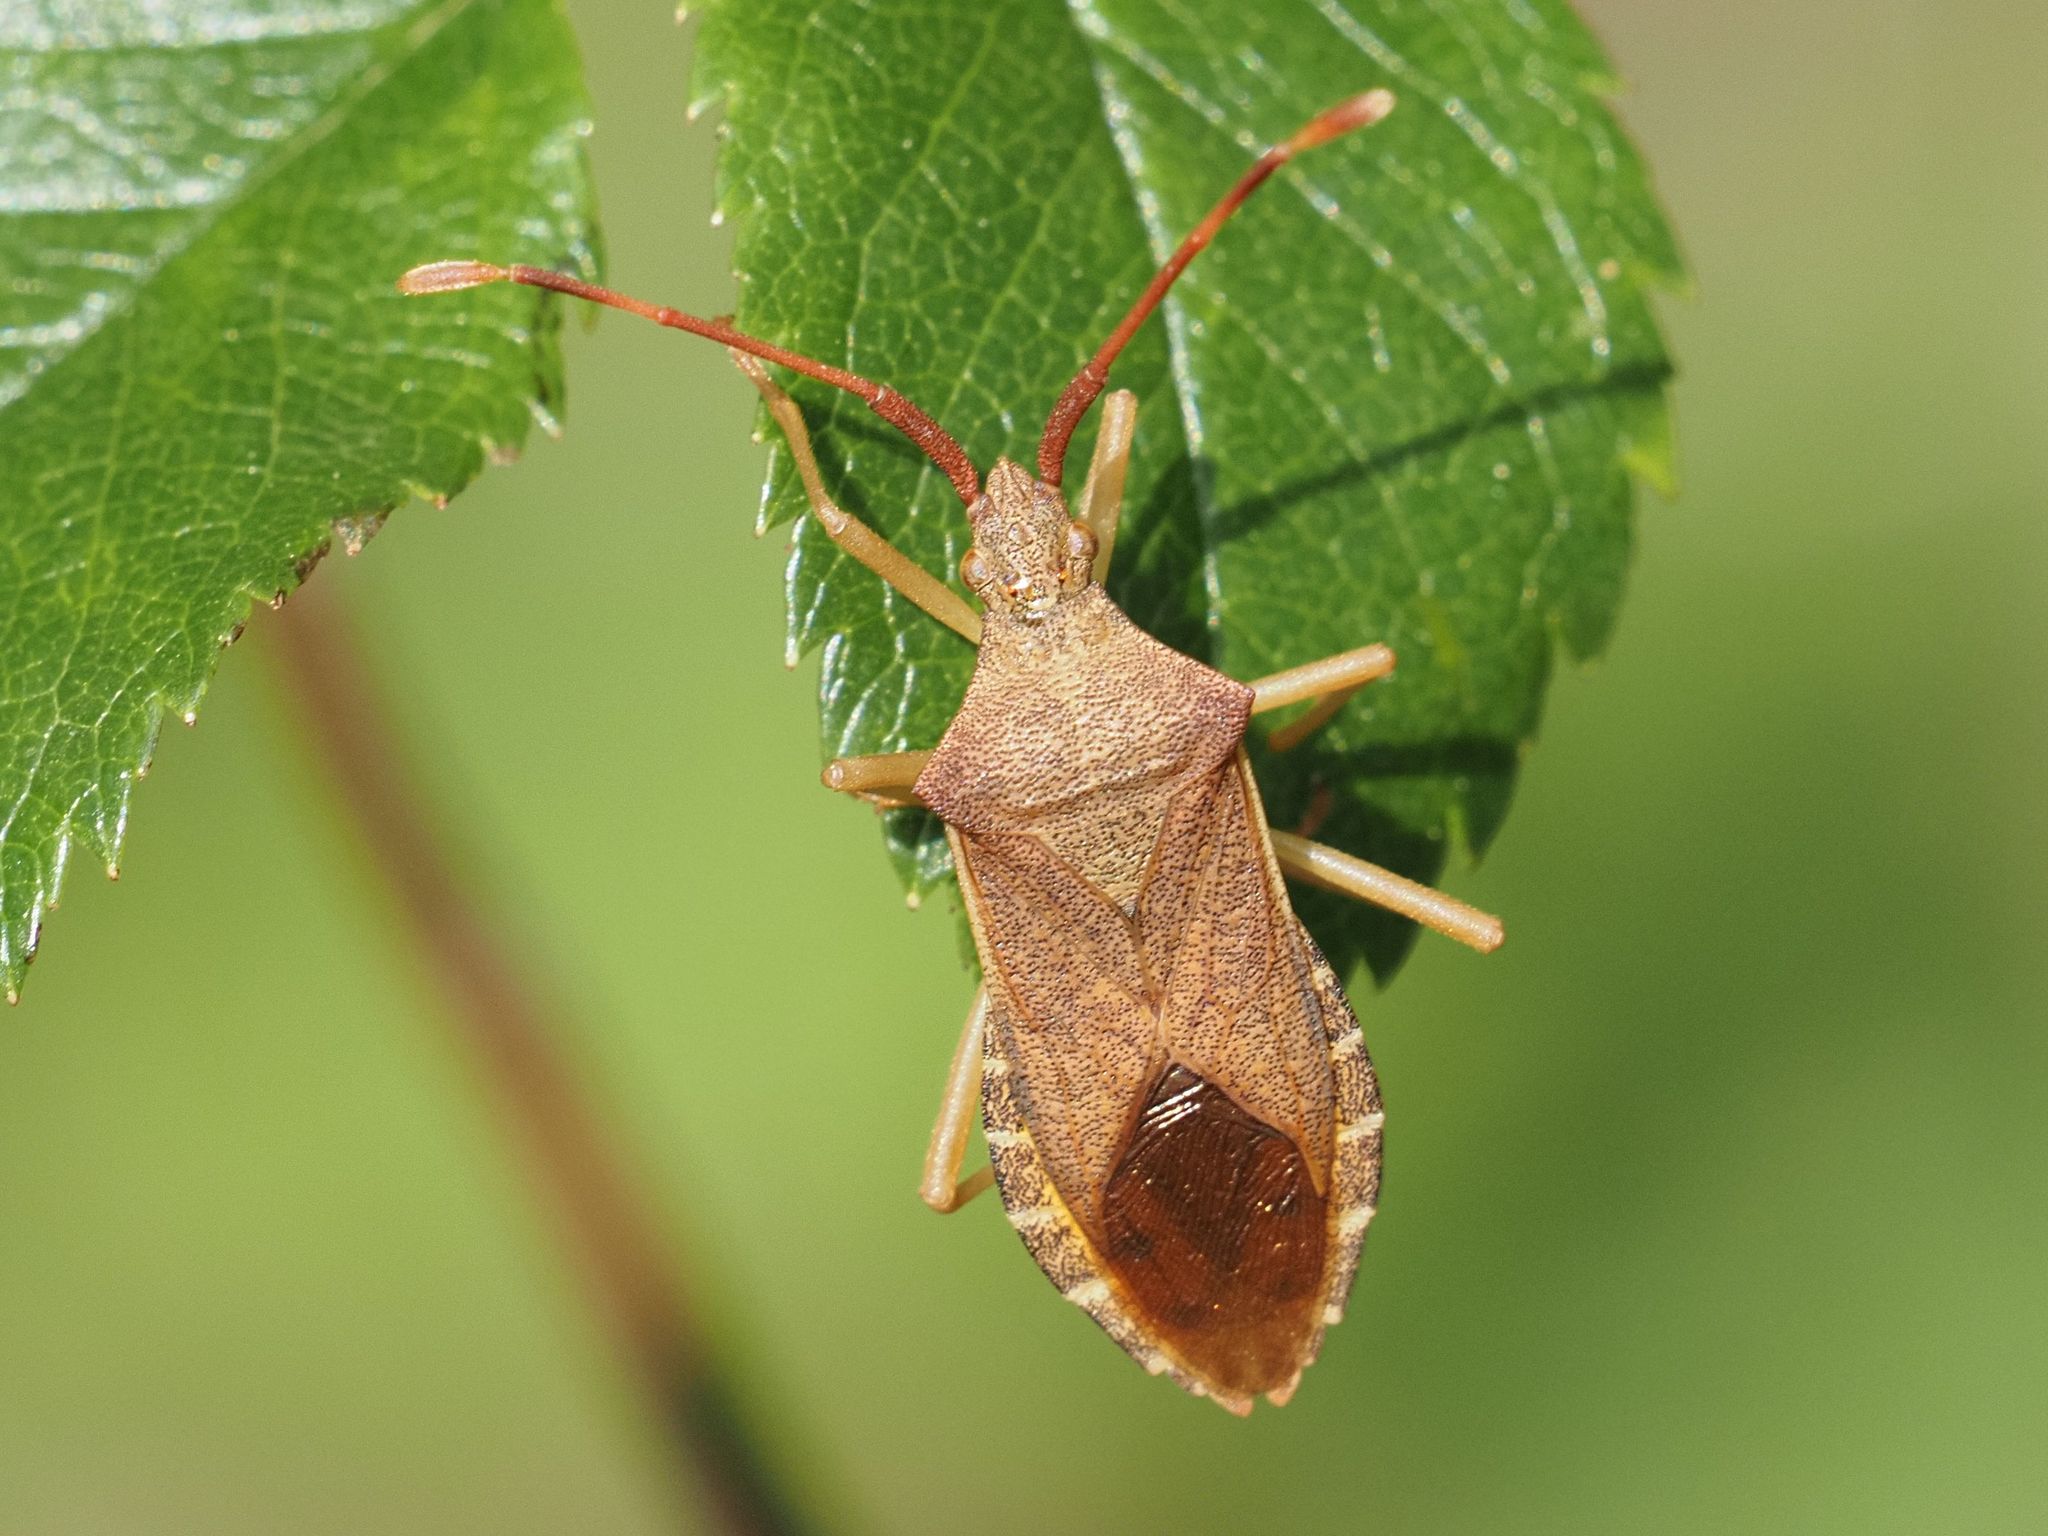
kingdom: Animalia
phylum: Arthropoda
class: Insecta
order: Hemiptera
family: Coreidae
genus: Gonocerus
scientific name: Gonocerus acuteangulatus
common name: Box bug
